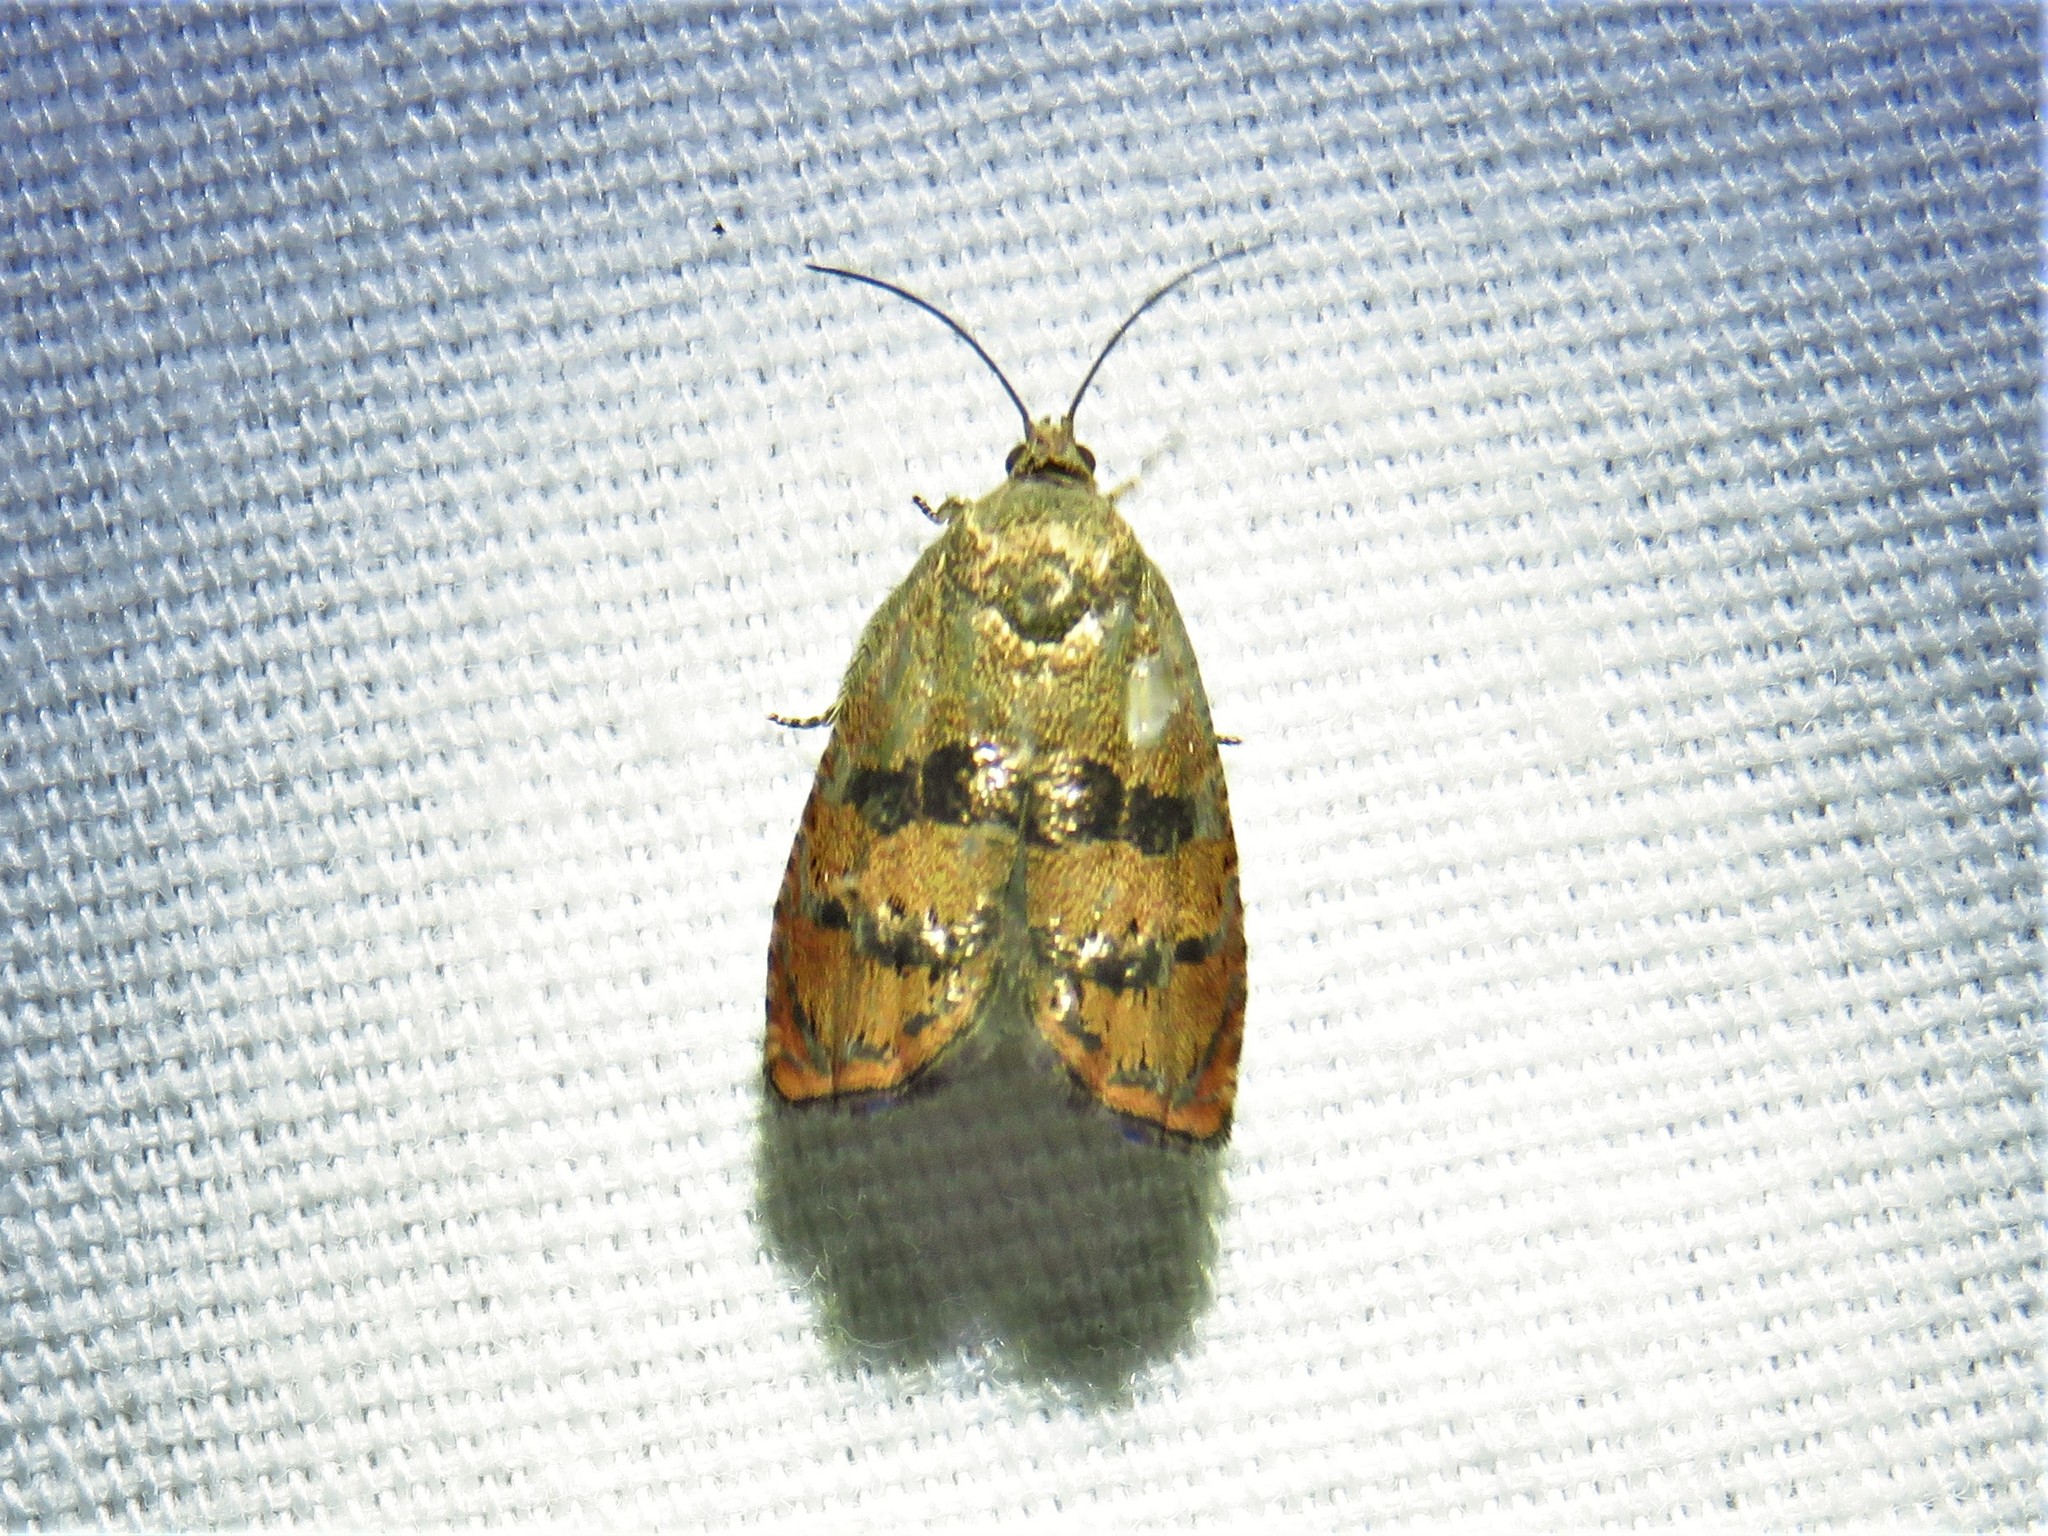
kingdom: Animalia
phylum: Arthropoda
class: Insecta
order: Lepidoptera
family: Tortricidae
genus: Cydia
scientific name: Cydia latiferreana
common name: Filbertworm moth
